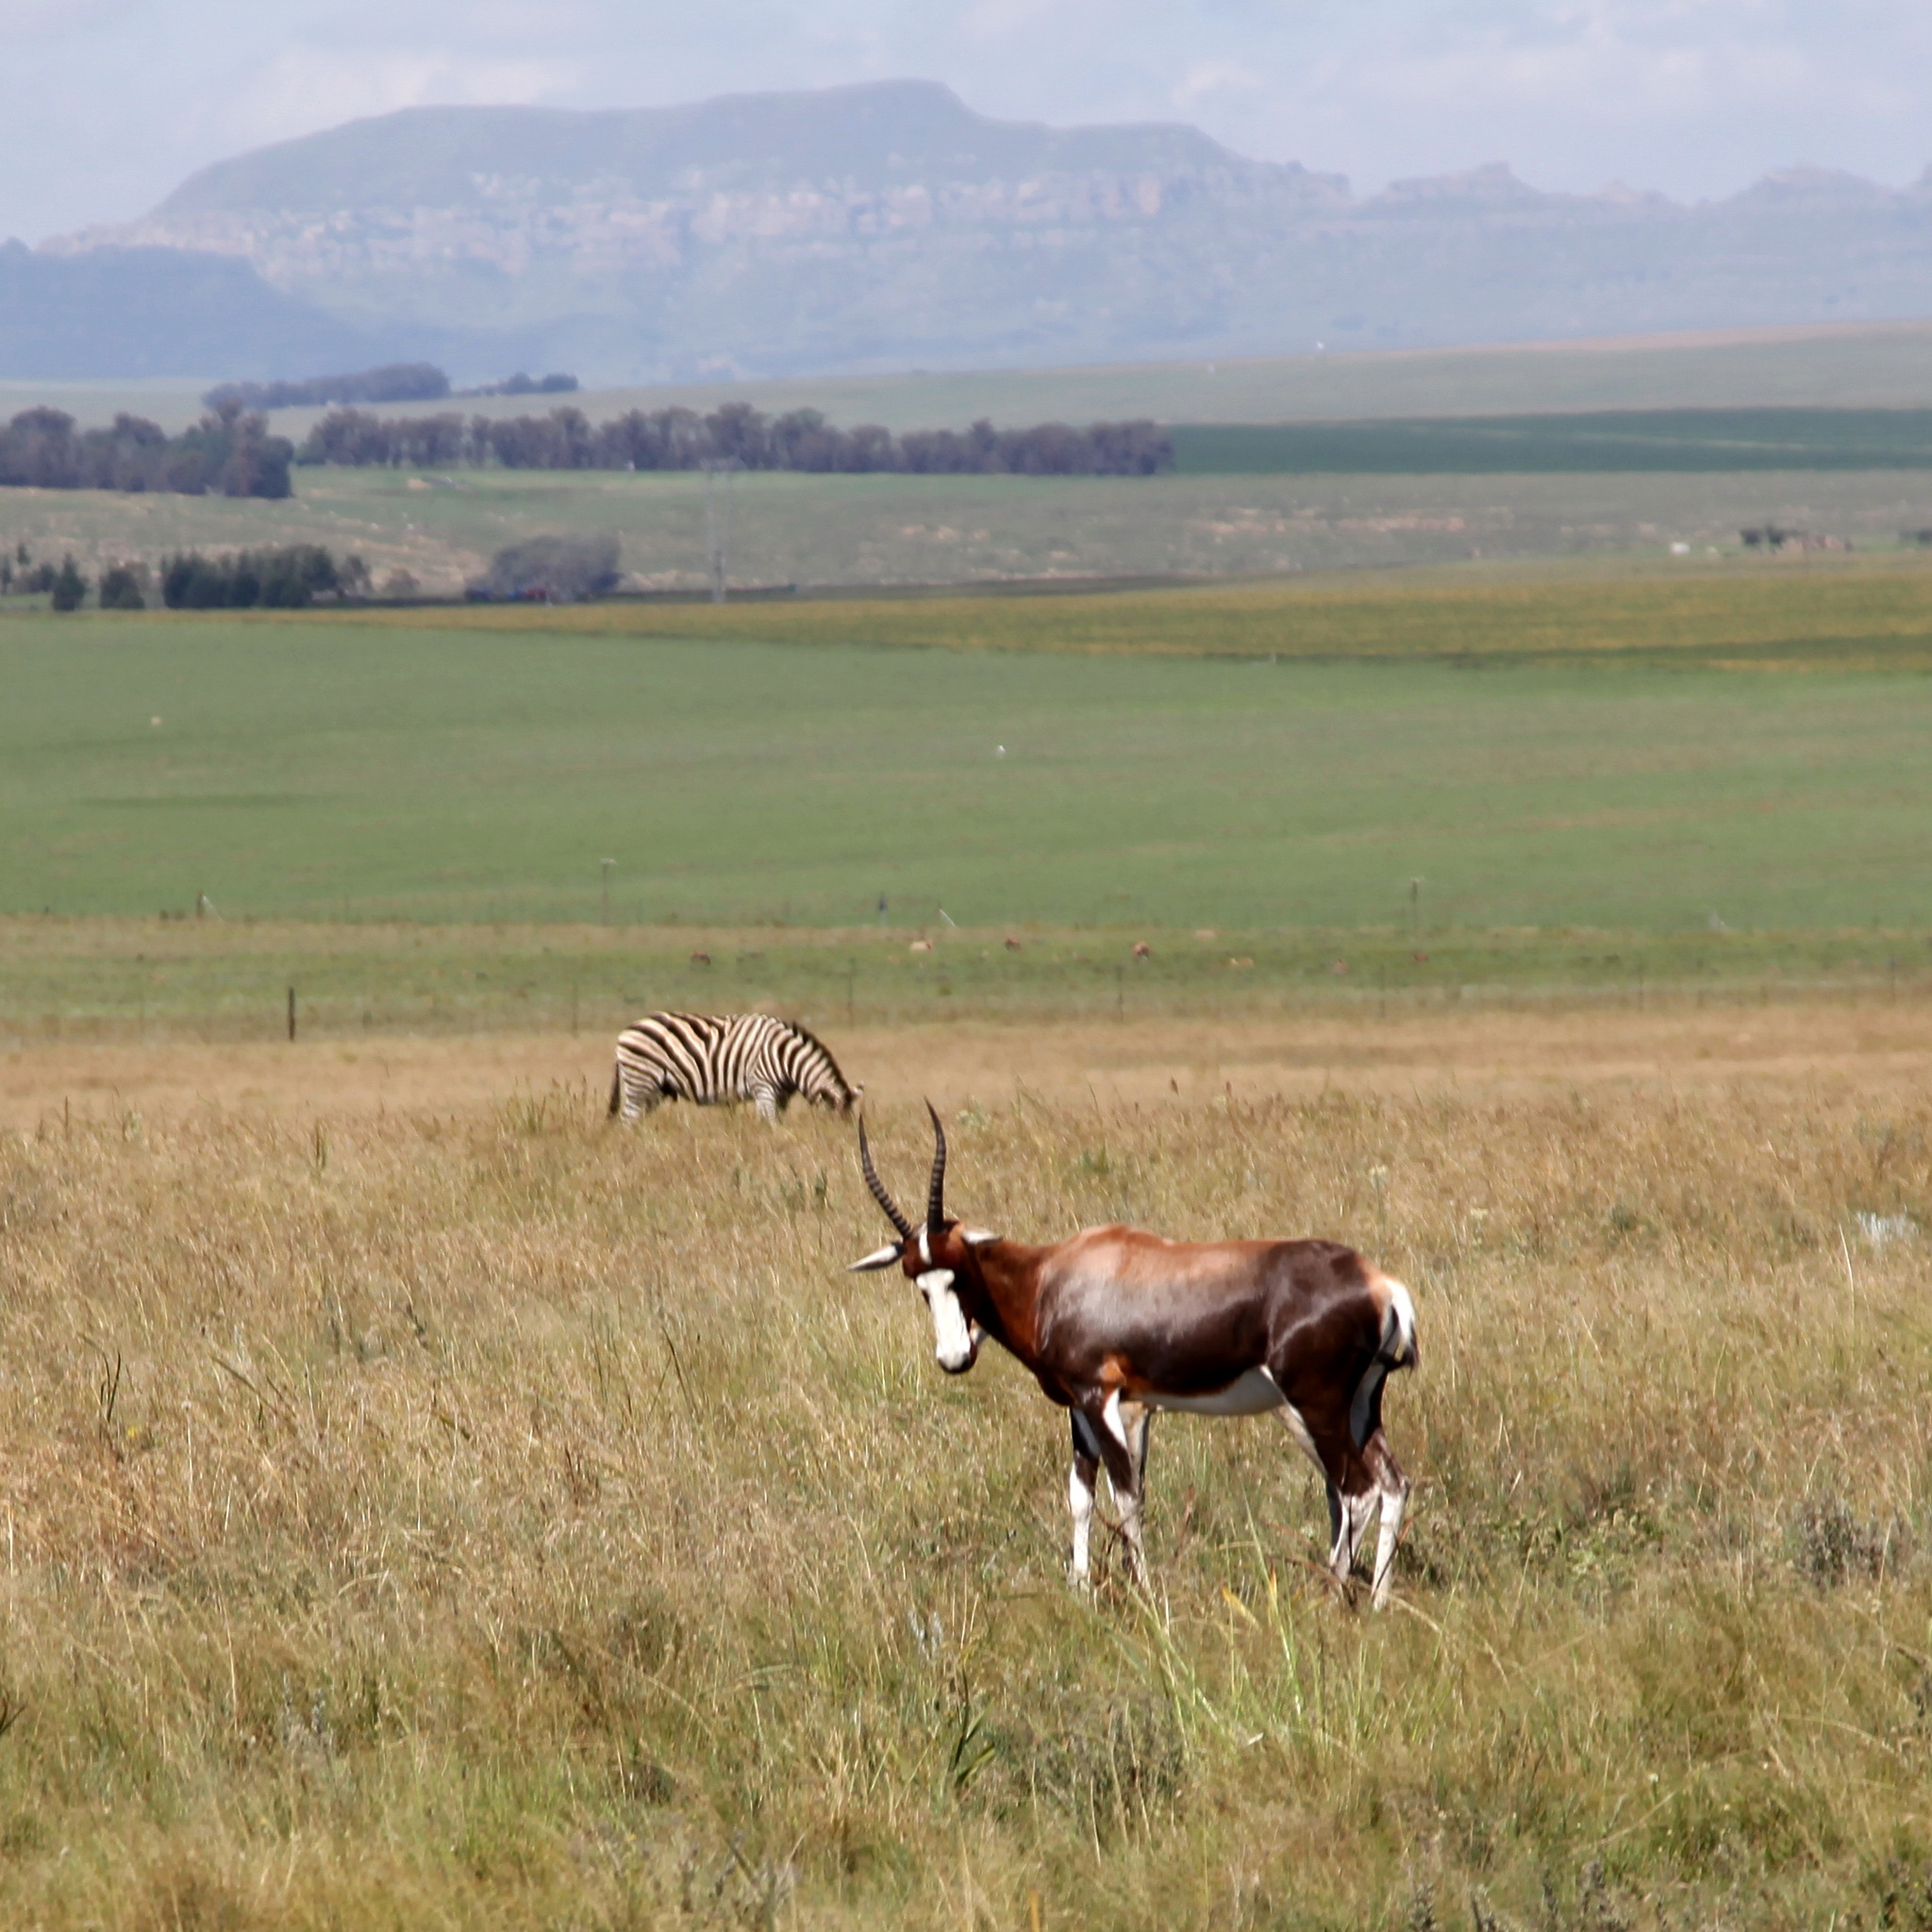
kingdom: Animalia
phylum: Chordata
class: Mammalia
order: Artiodactyla
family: Bovidae
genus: Damaliscus
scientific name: Damaliscus pygargus
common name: Bontebok
